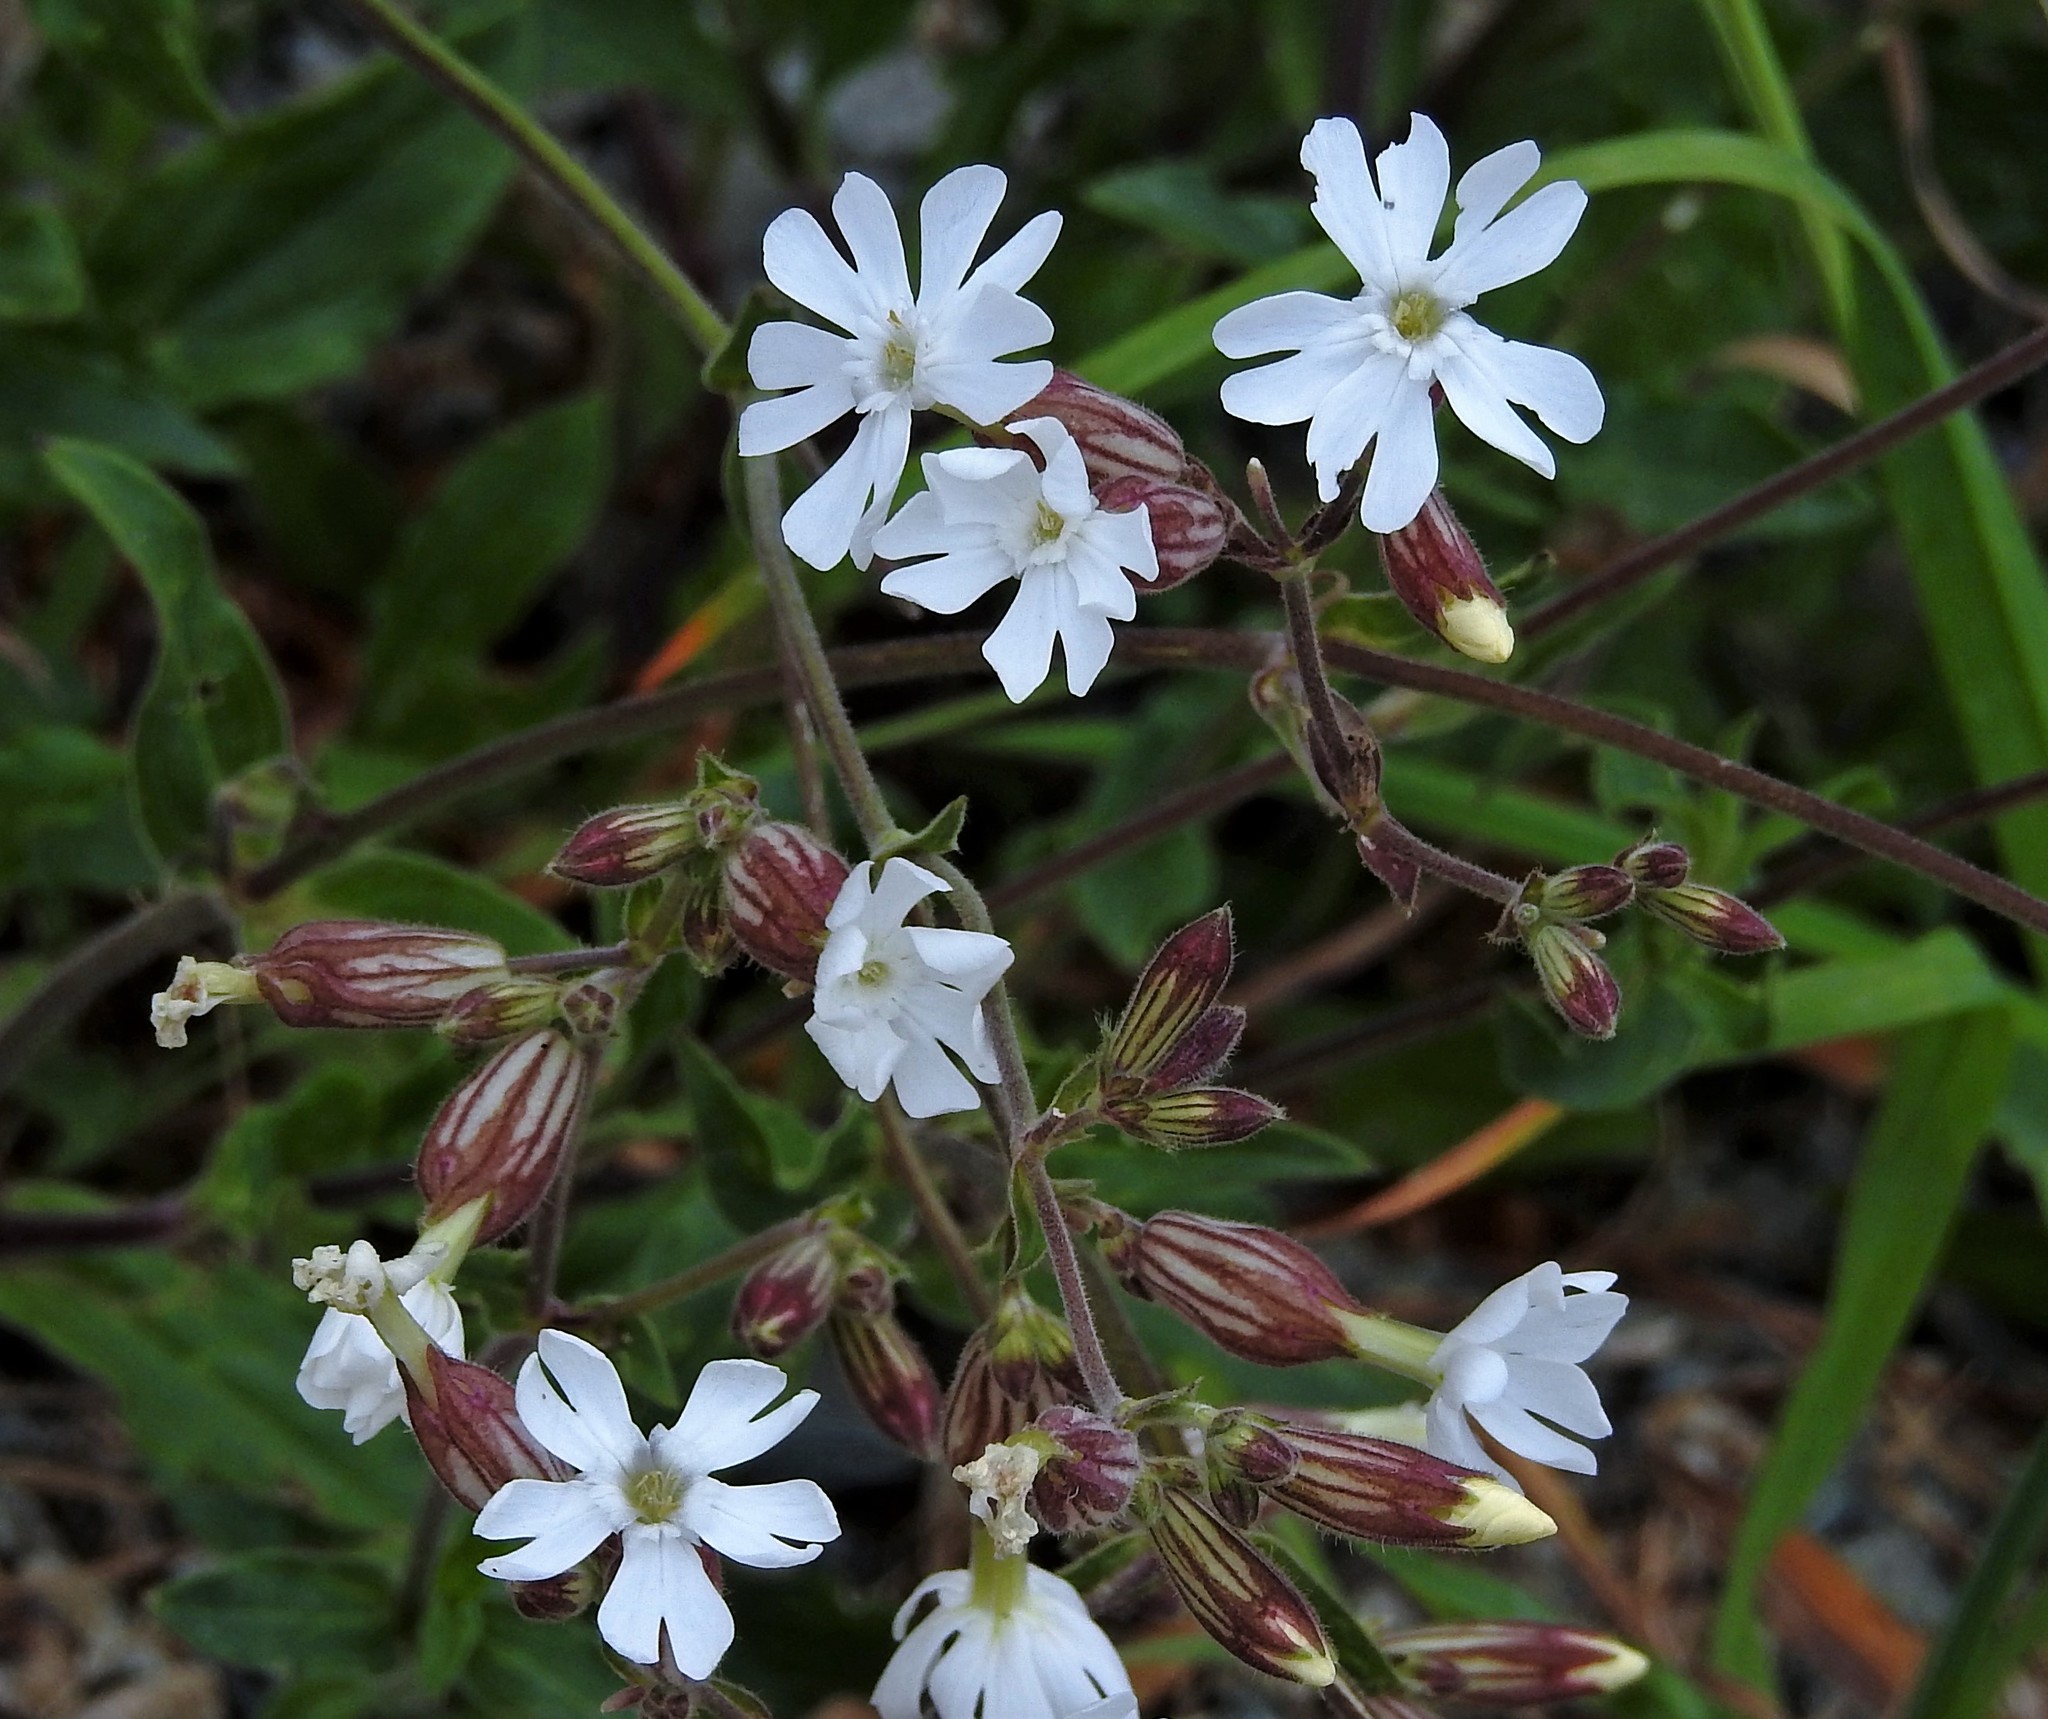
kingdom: Plantae
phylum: Tracheophyta
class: Magnoliopsida
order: Caryophyllales
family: Caryophyllaceae
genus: Silene
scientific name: Silene latifolia
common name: White campion
